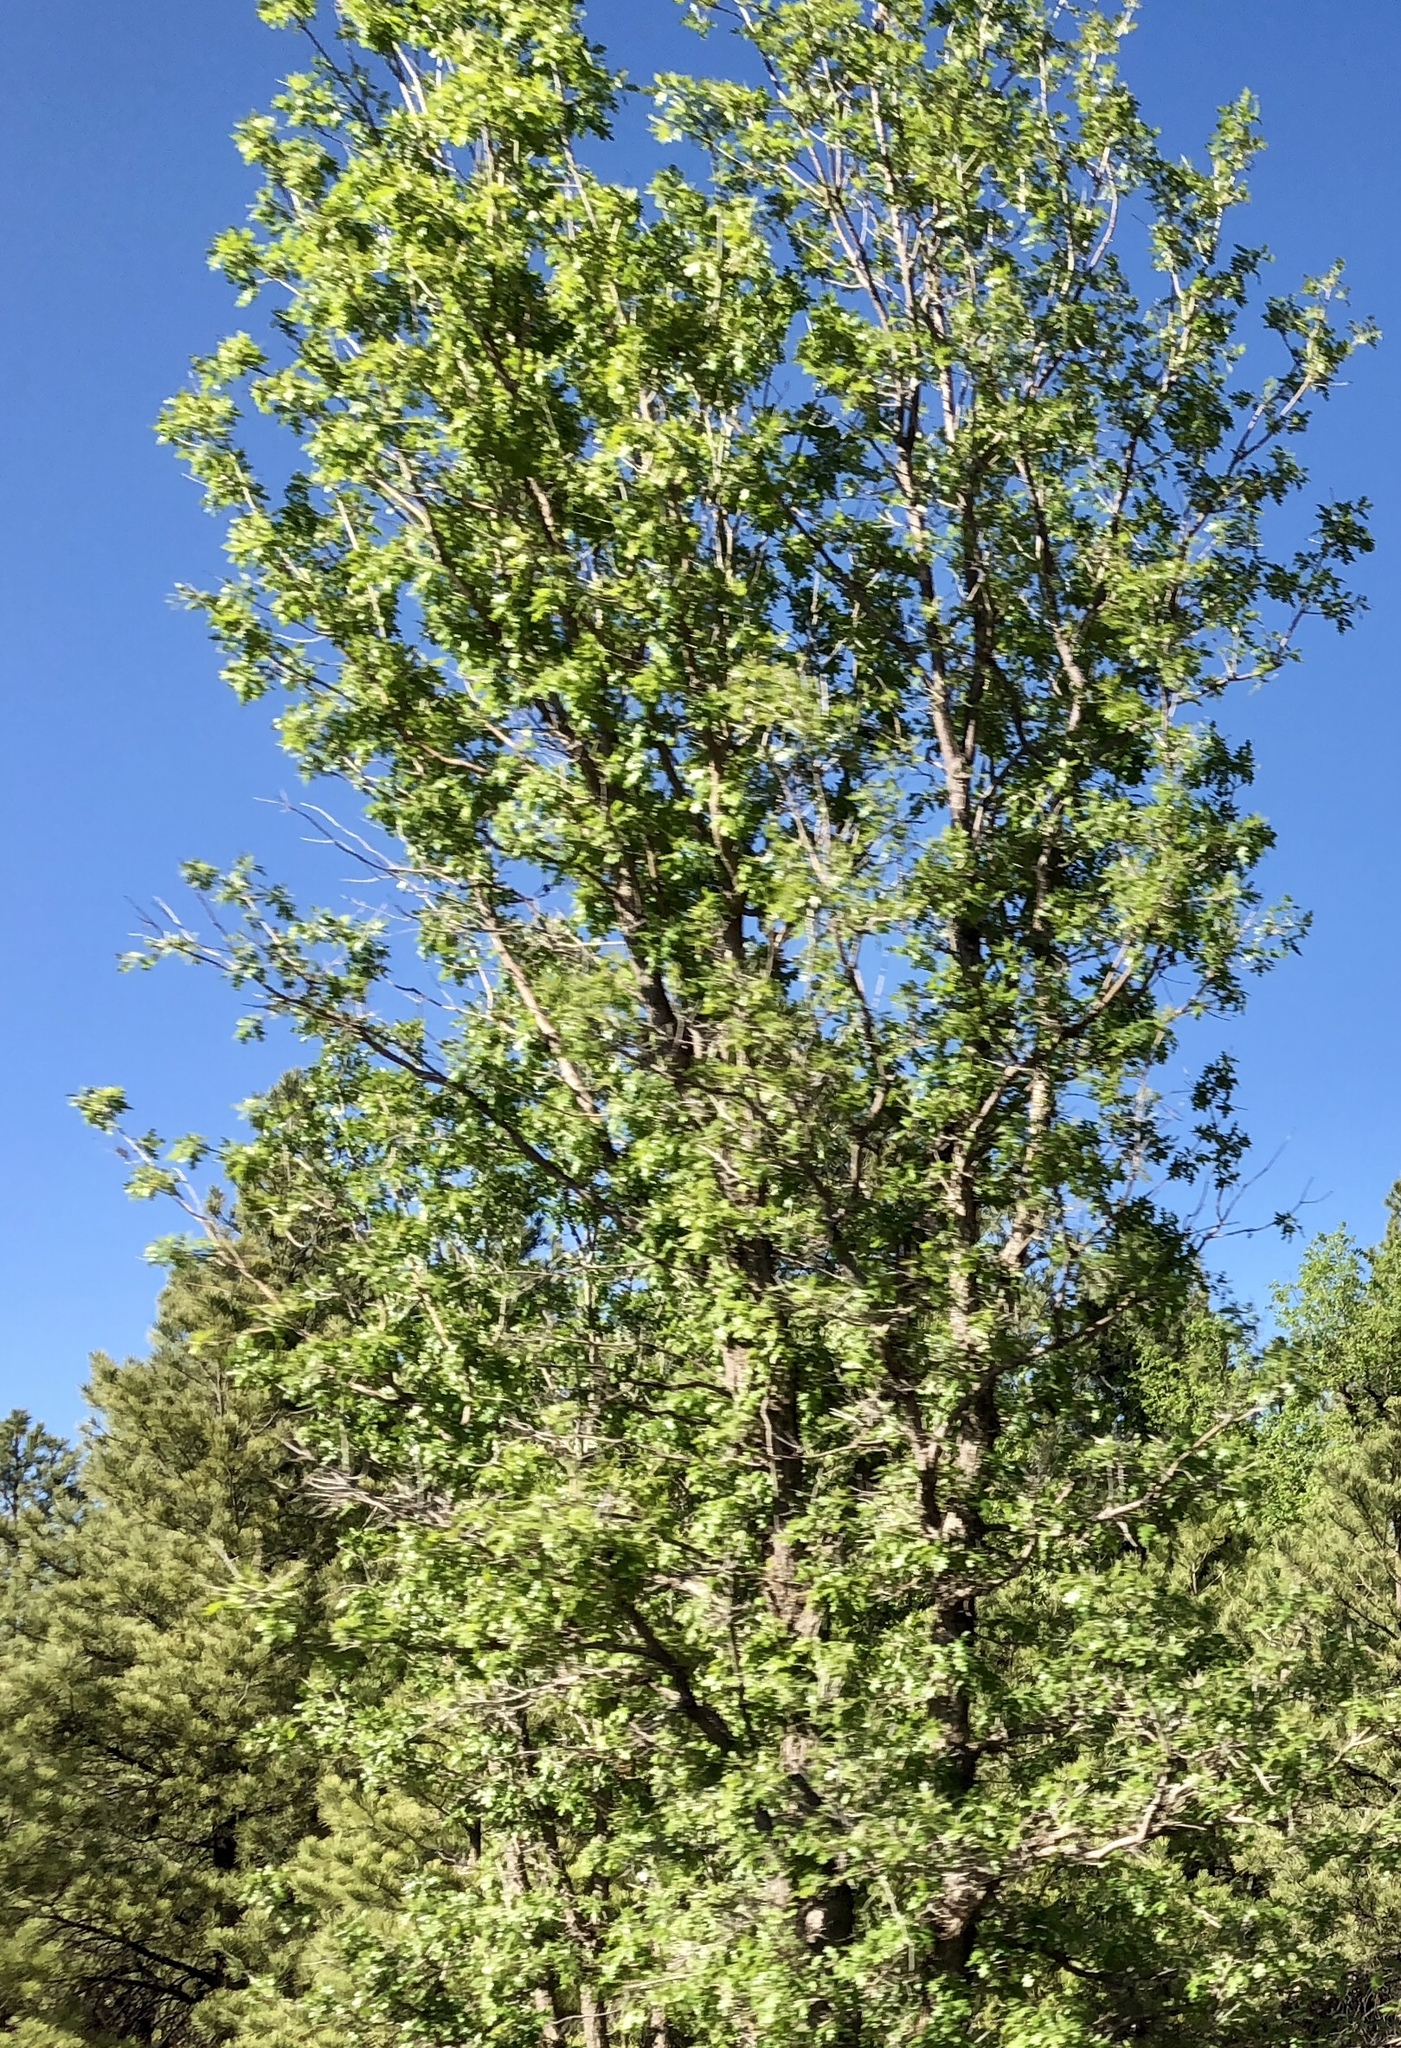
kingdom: Plantae
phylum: Tracheophyta
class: Magnoliopsida
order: Fagales
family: Fagaceae
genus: Quercus
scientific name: Quercus gambelii
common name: Gambel oak
